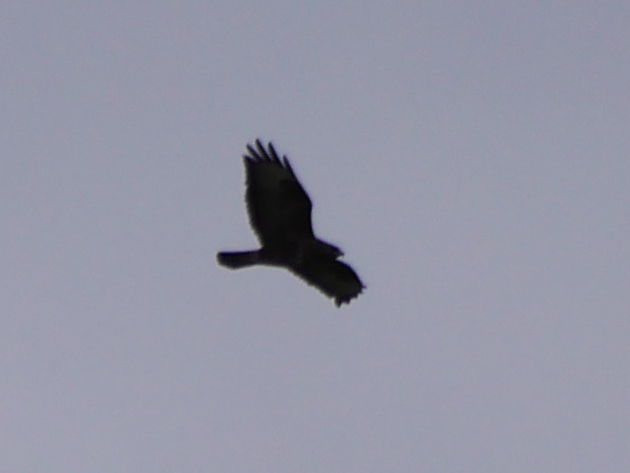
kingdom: Animalia
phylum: Chordata
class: Aves
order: Accipitriformes
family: Accipitridae
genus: Buteo
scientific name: Buteo buteo
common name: Common buzzard
